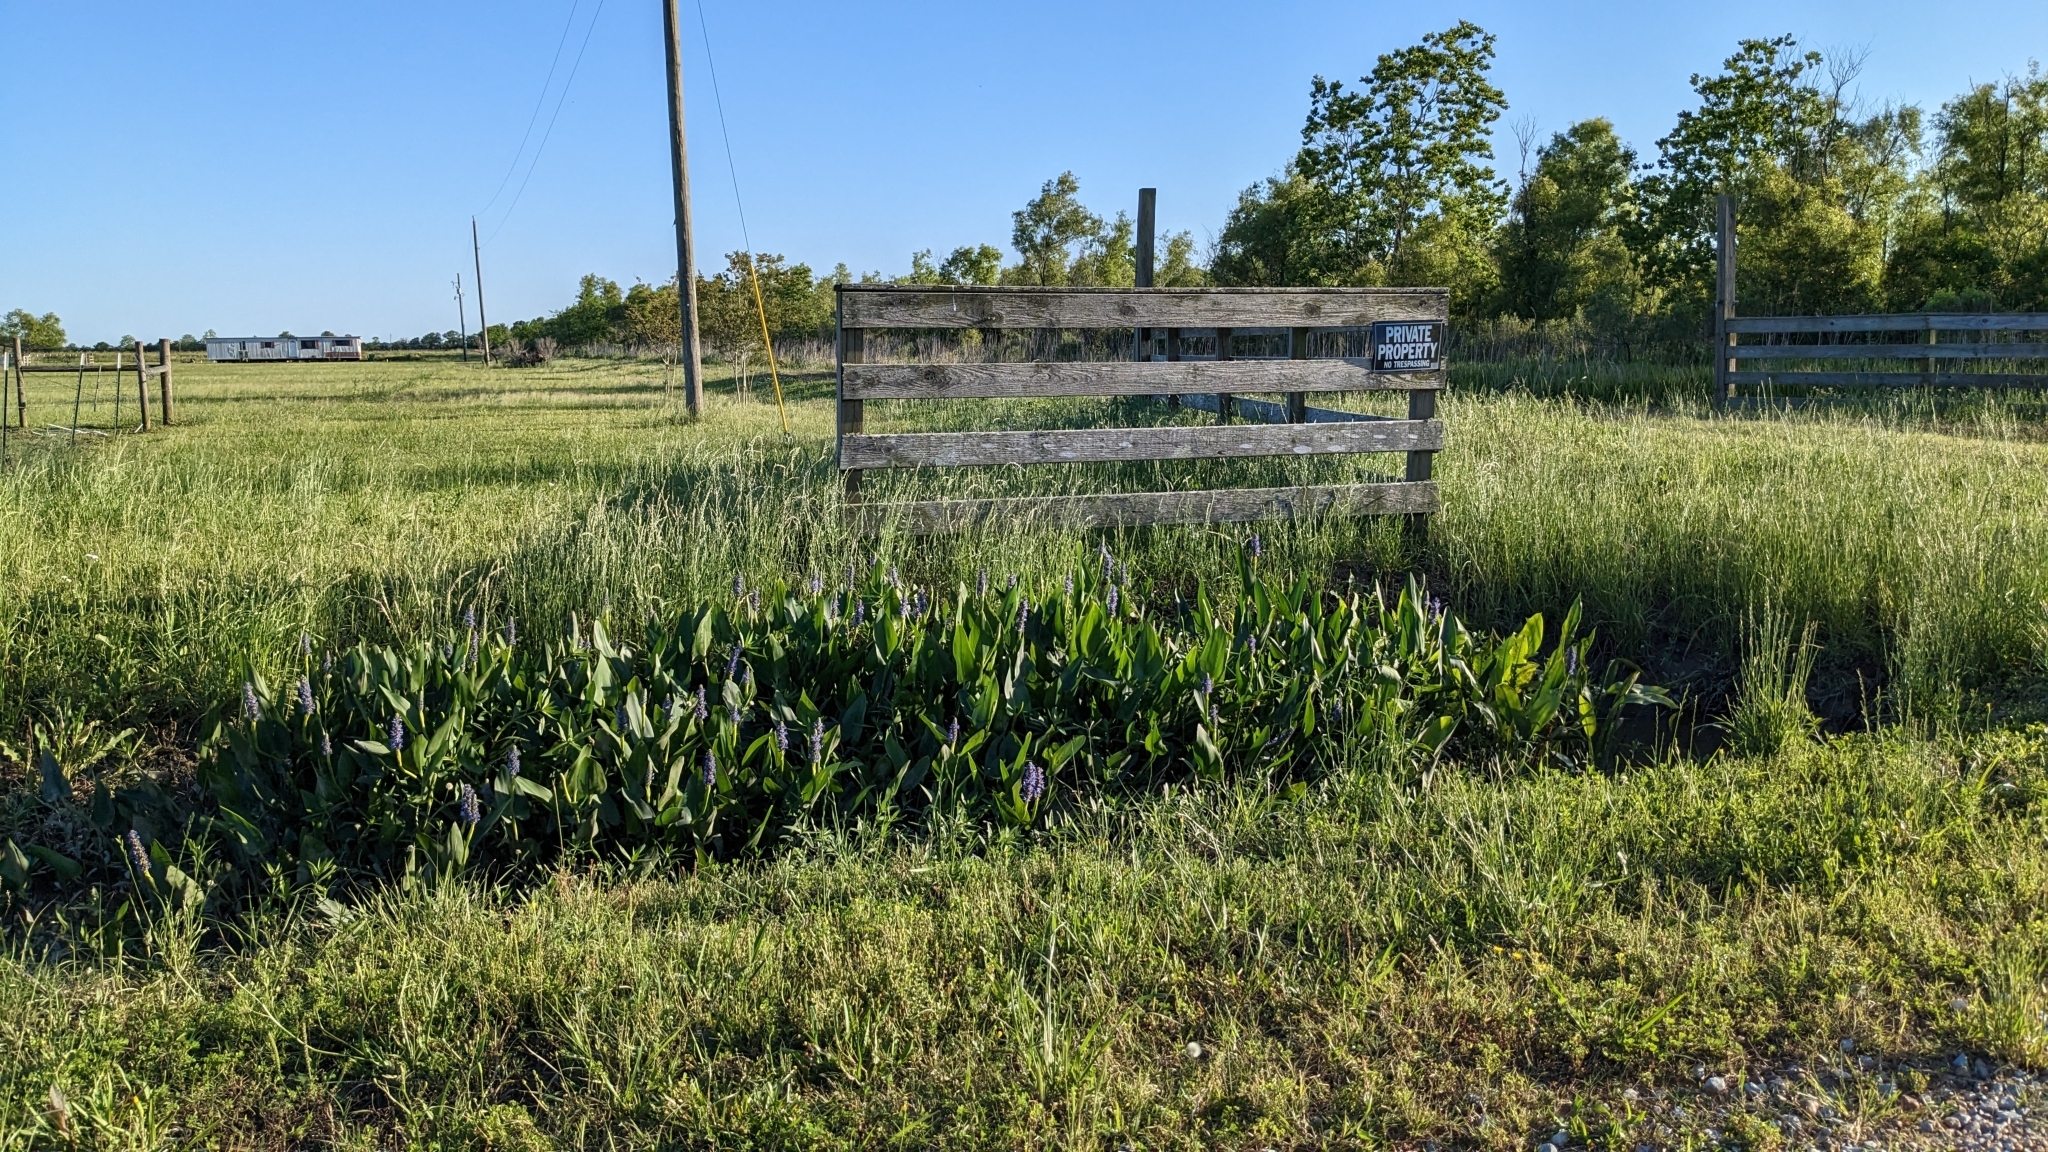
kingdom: Plantae
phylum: Tracheophyta
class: Liliopsida
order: Commelinales
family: Pontederiaceae
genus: Pontederia
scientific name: Pontederia cordata
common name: Pickerelweed
